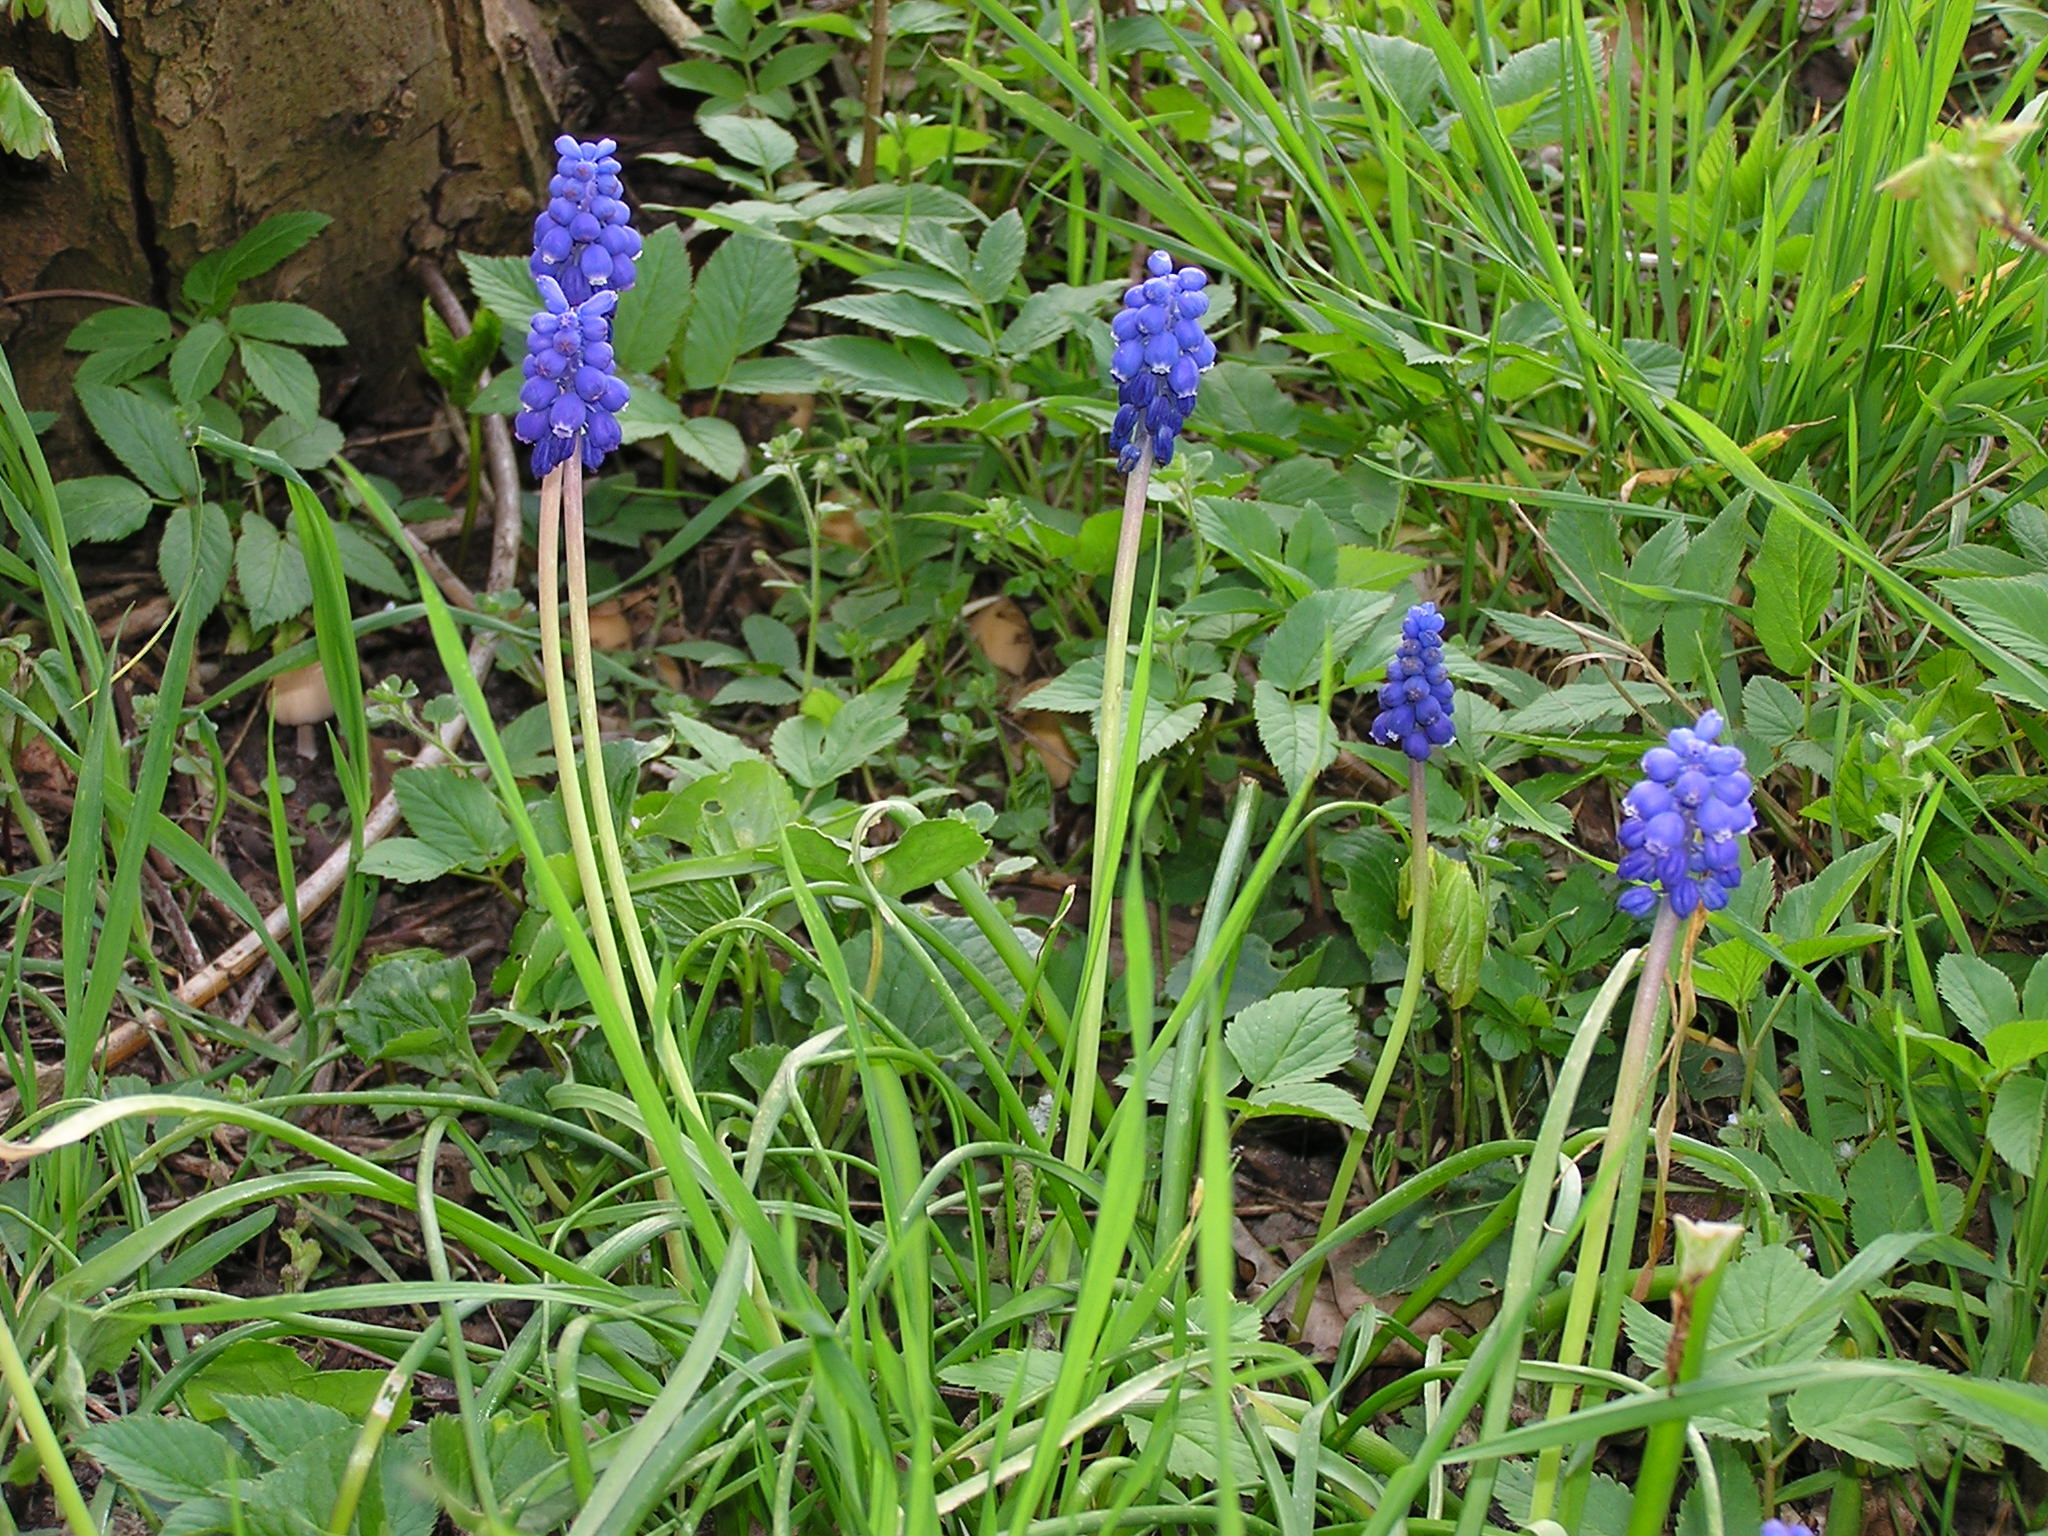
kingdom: Plantae
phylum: Tracheophyta
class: Liliopsida
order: Asparagales
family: Asparagaceae
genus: Muscari
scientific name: Muscari botryoides
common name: Compact grape-hyacinth
